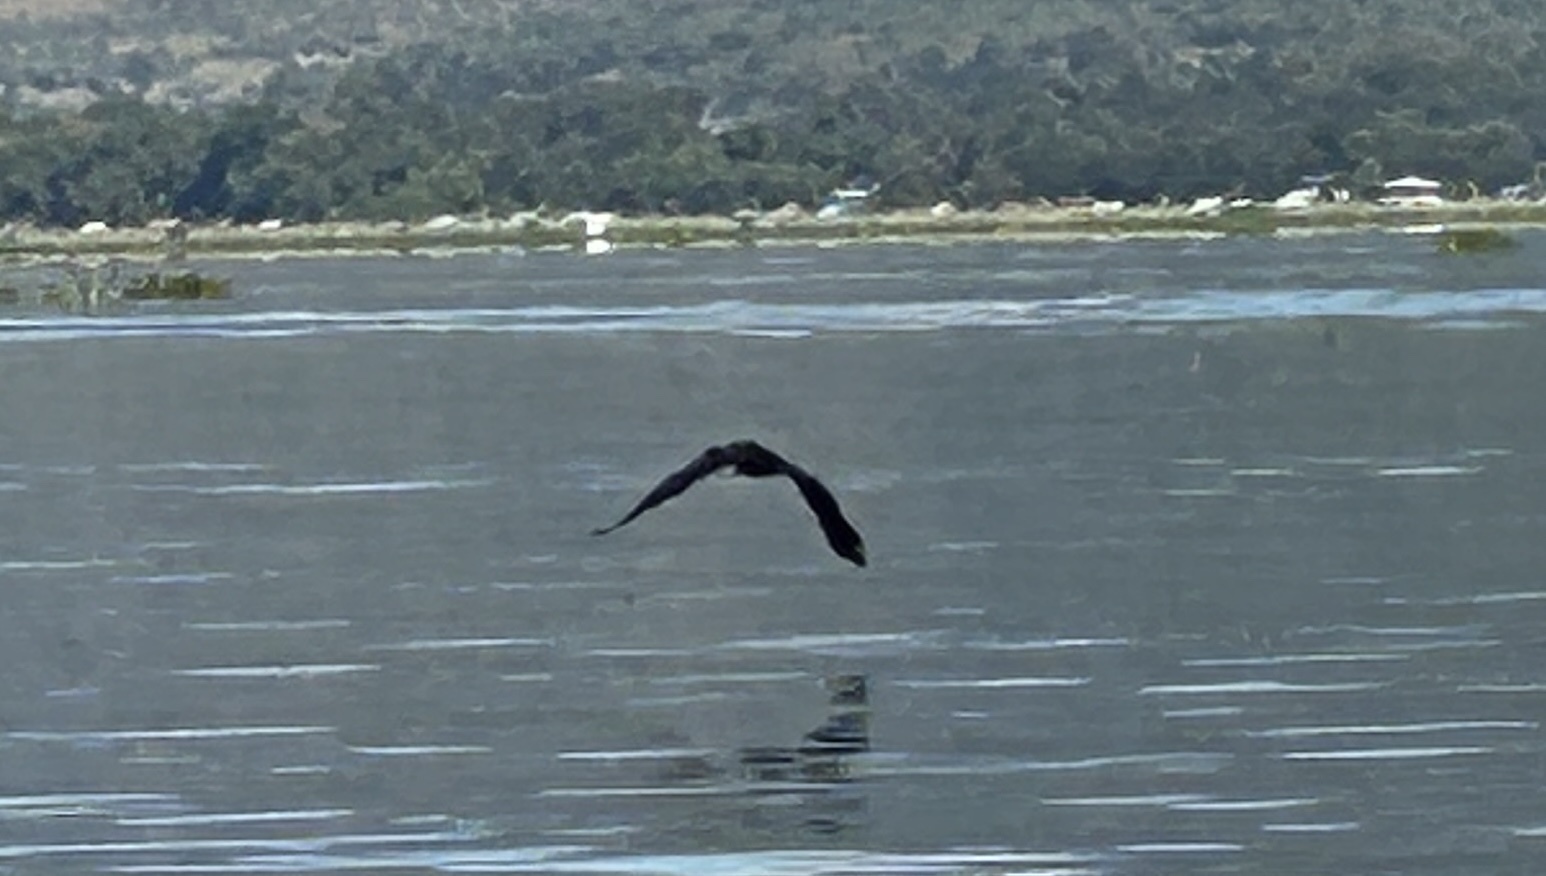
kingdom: Animalia
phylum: Chordata
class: Aves
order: Suliformes
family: Phalacrocoracidae
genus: Microcarbo
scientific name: Microcarbo niger
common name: Little cormorant
